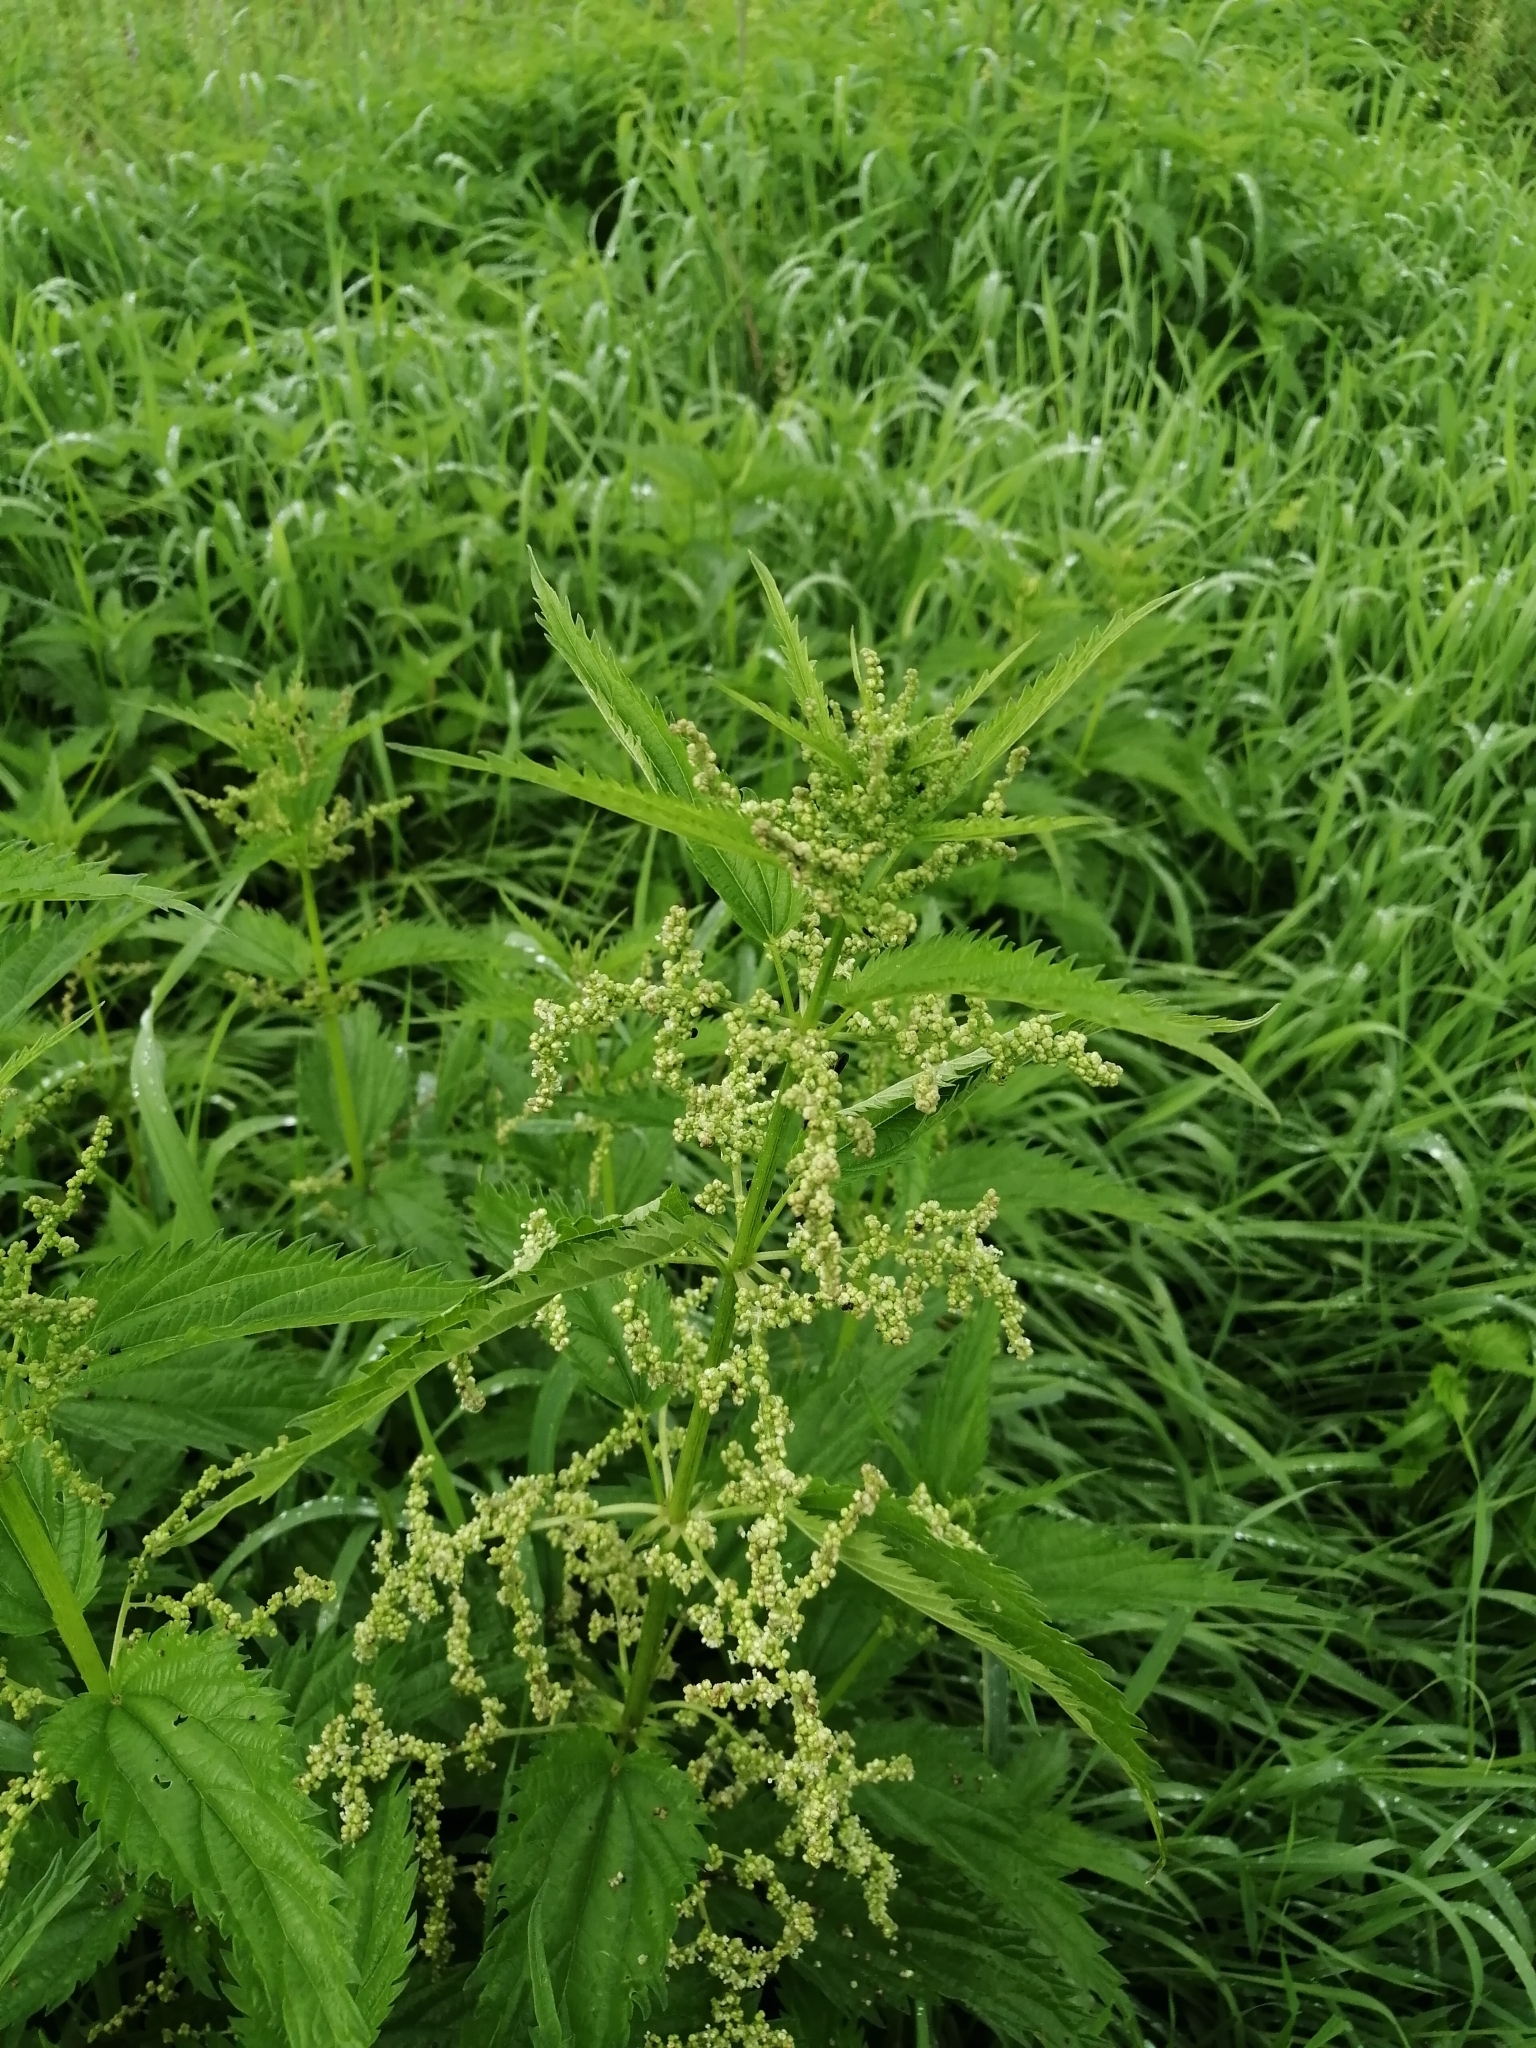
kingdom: Plantae
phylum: Tracheophyta
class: Magnoliopsida
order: Rosales
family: Urticaceae
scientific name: Urticaceae
